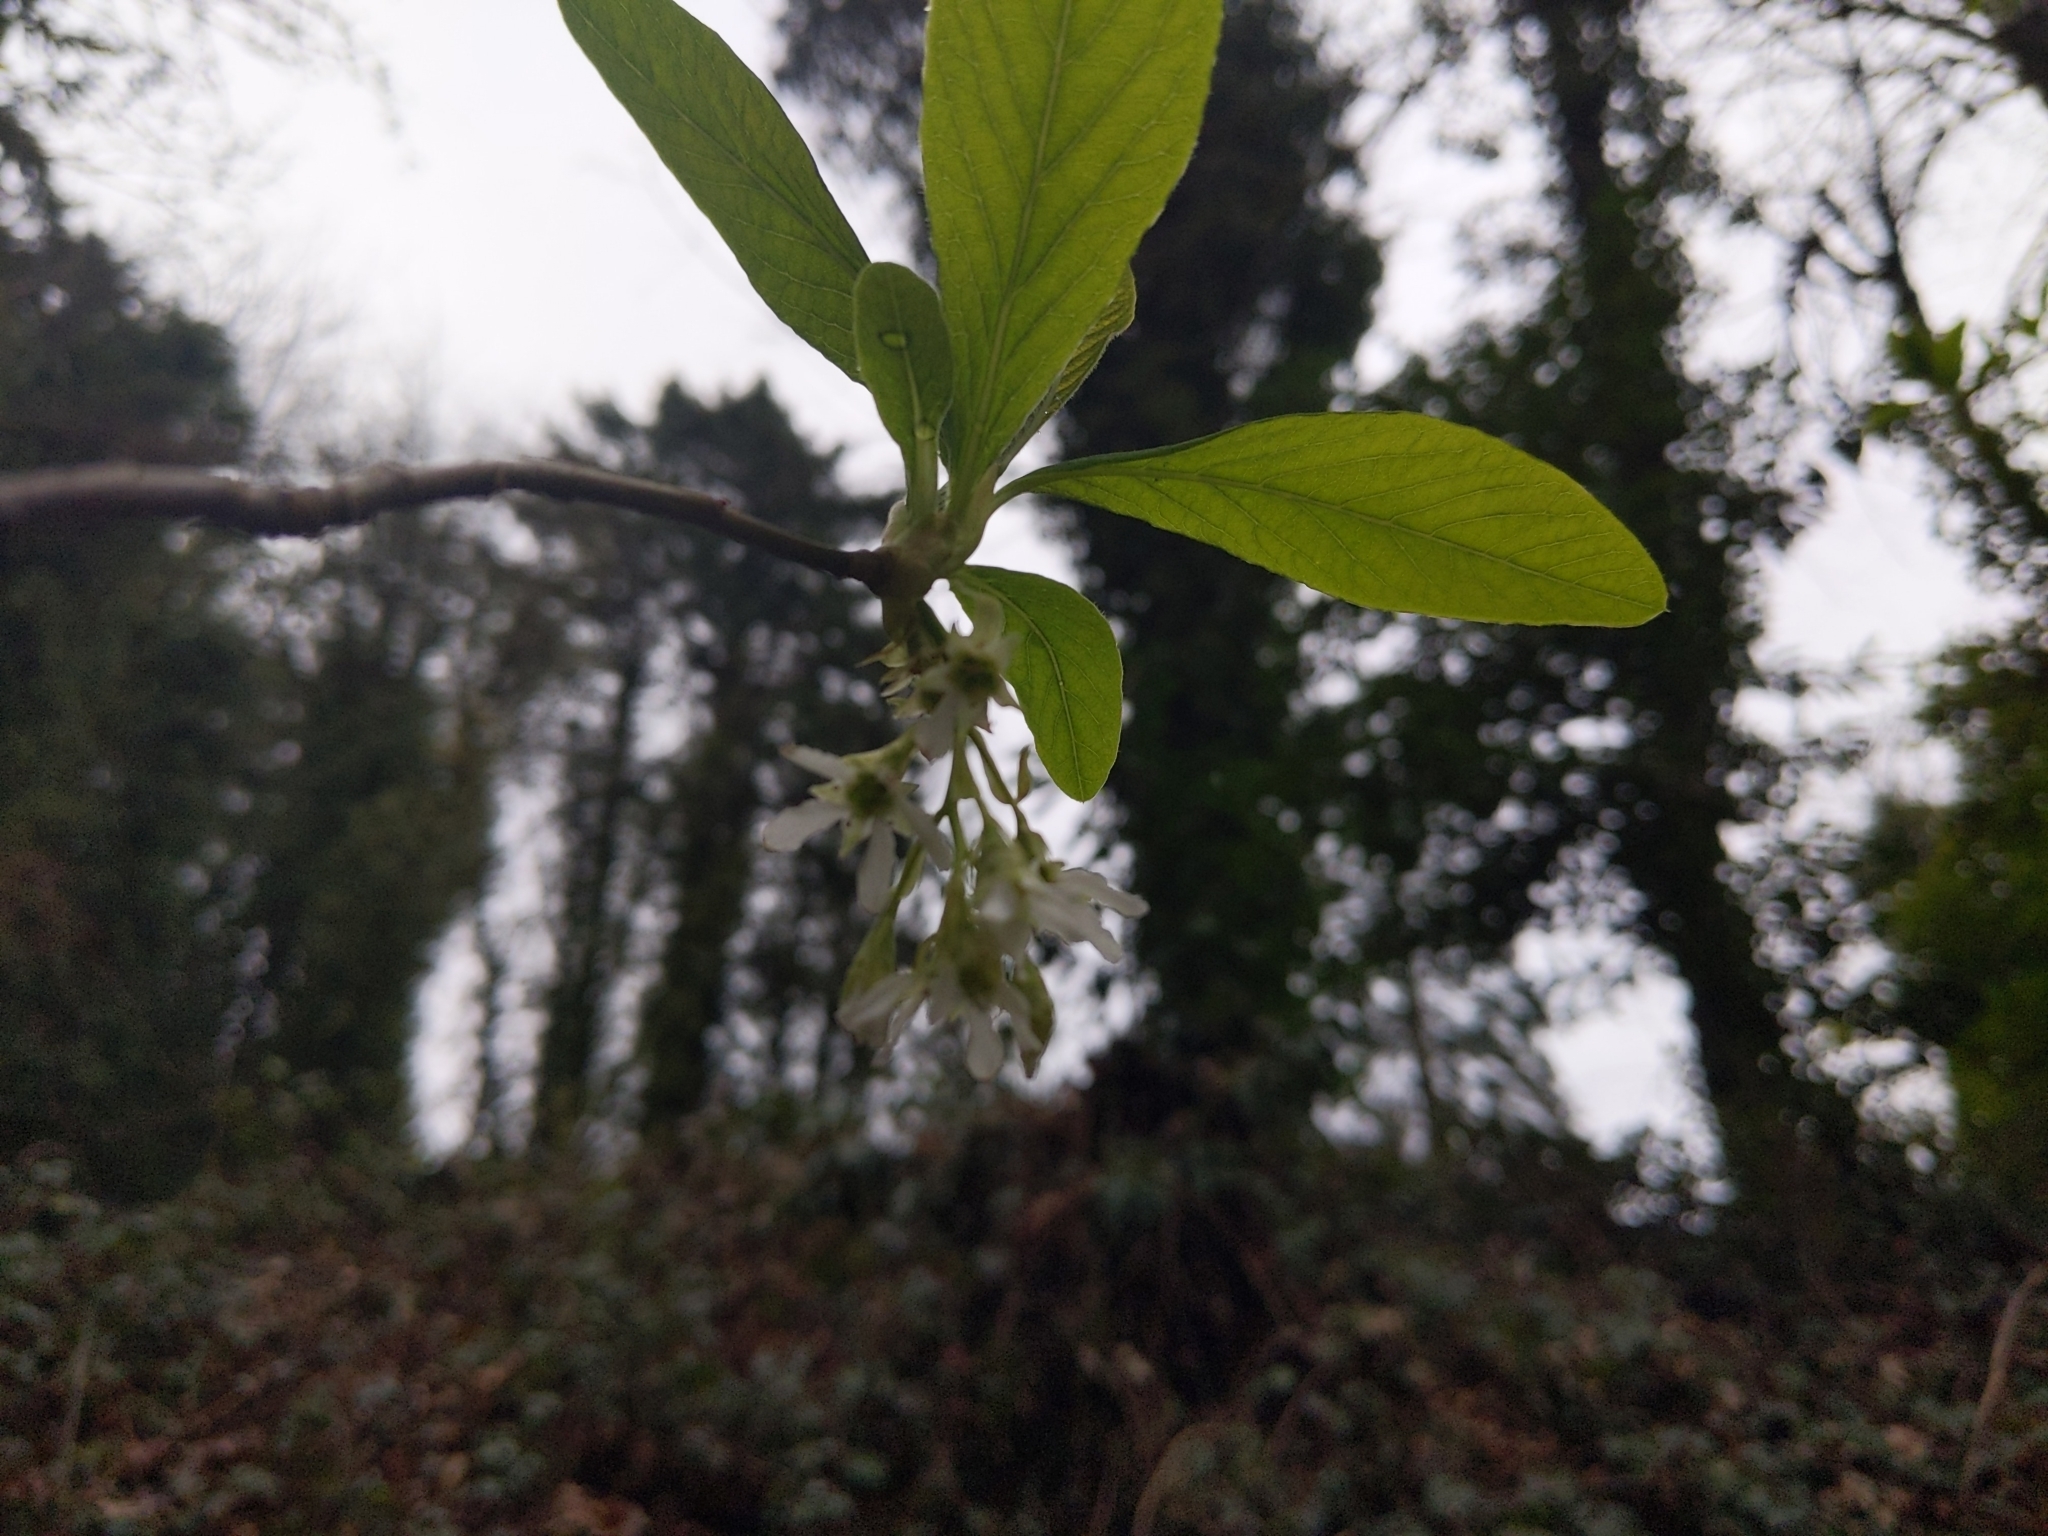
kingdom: Plantae
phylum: Tracheophyta
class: Magnoliopsida
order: Rosales
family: Rosaceae
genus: Oemleria
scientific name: Oemleria cerasiformis
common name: Osoberry
